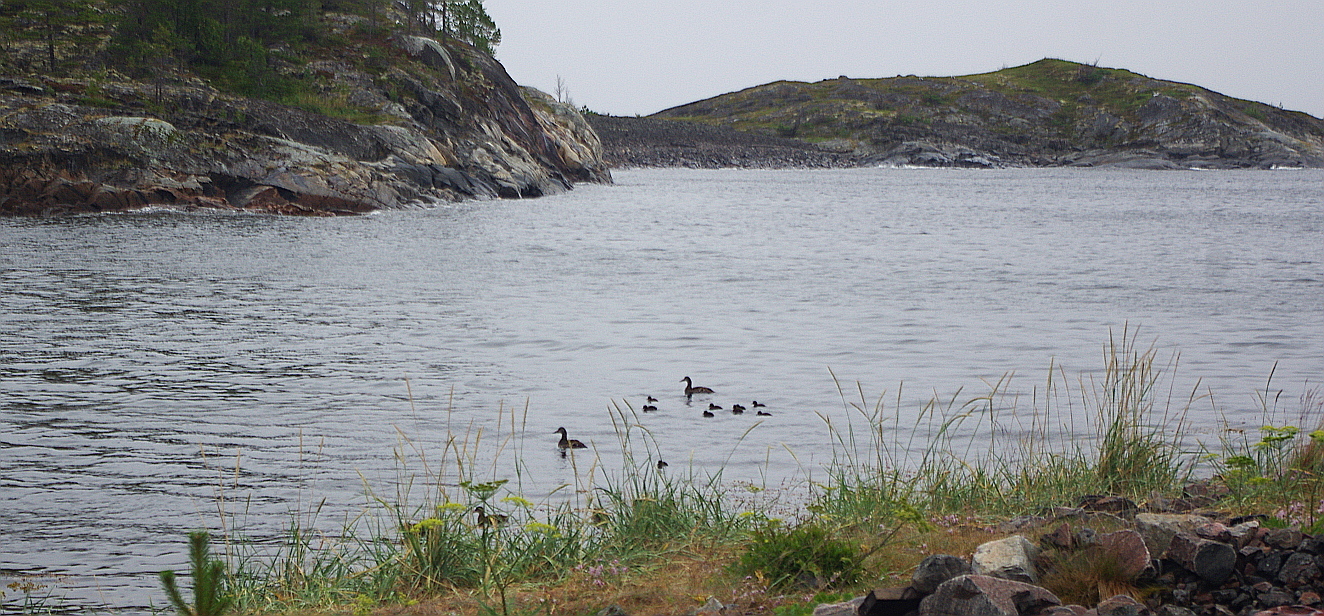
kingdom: Animalia
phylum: Chordata
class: Aves
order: Anseriformes
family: Anatidae
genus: Somateria
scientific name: Somateria mollissima
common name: Common eider
